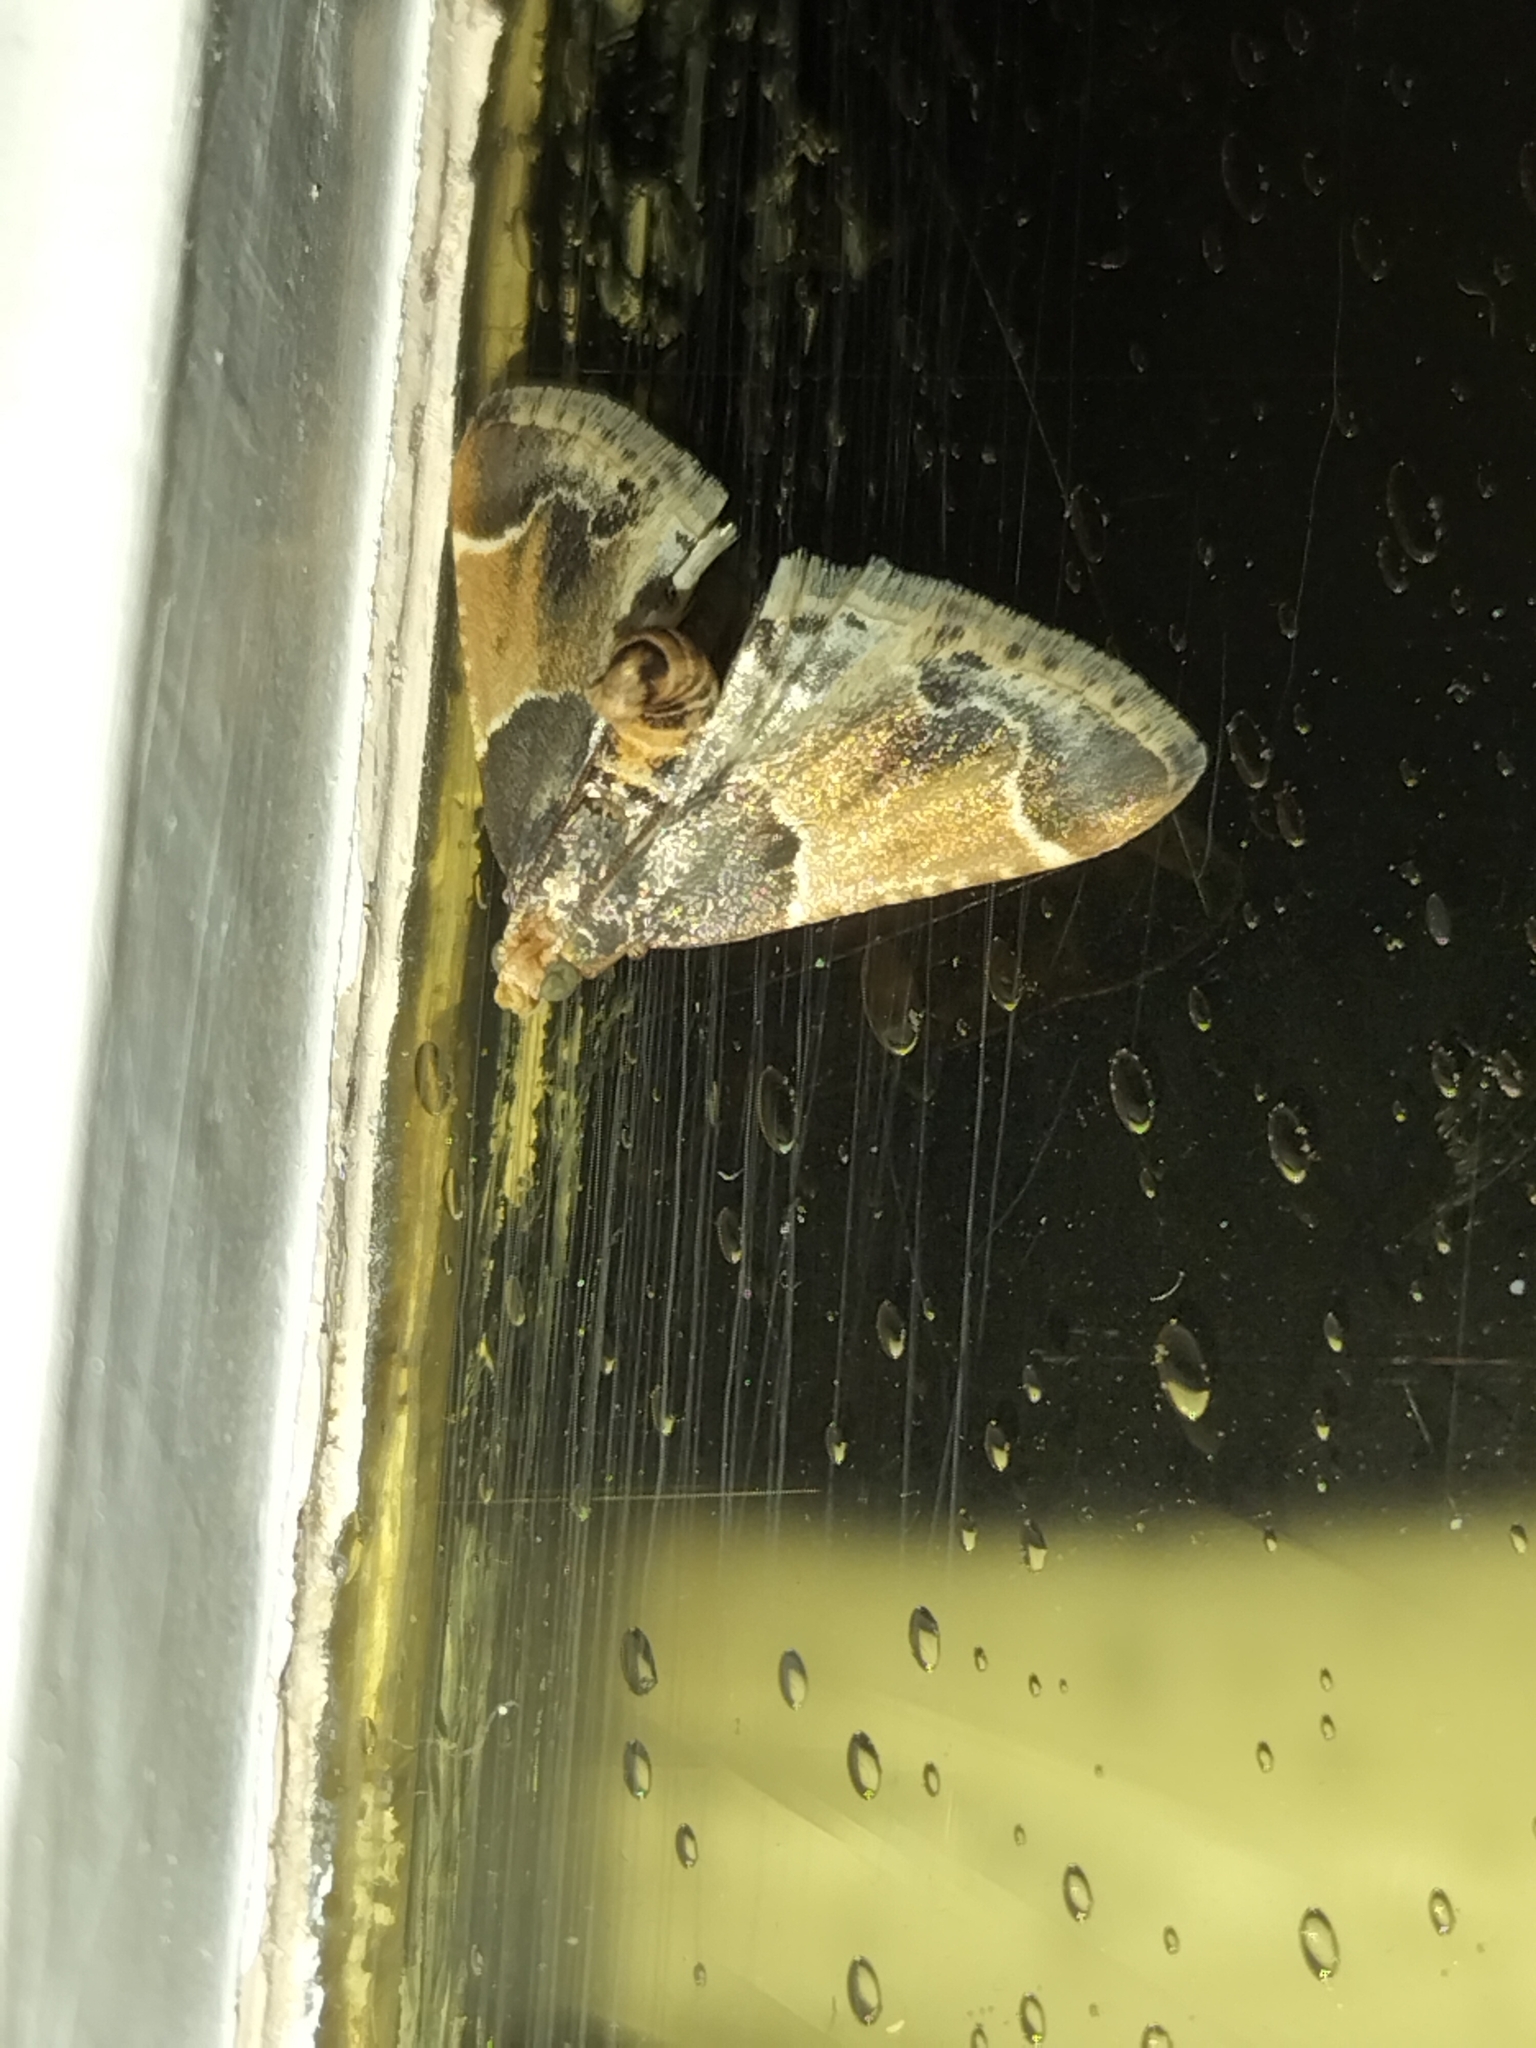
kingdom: Animalia
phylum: Arthropoda
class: Insecta
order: Lepidoptera
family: Pyralidae
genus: Pyralis
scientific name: Pyralis farinalis
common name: Meal moth
